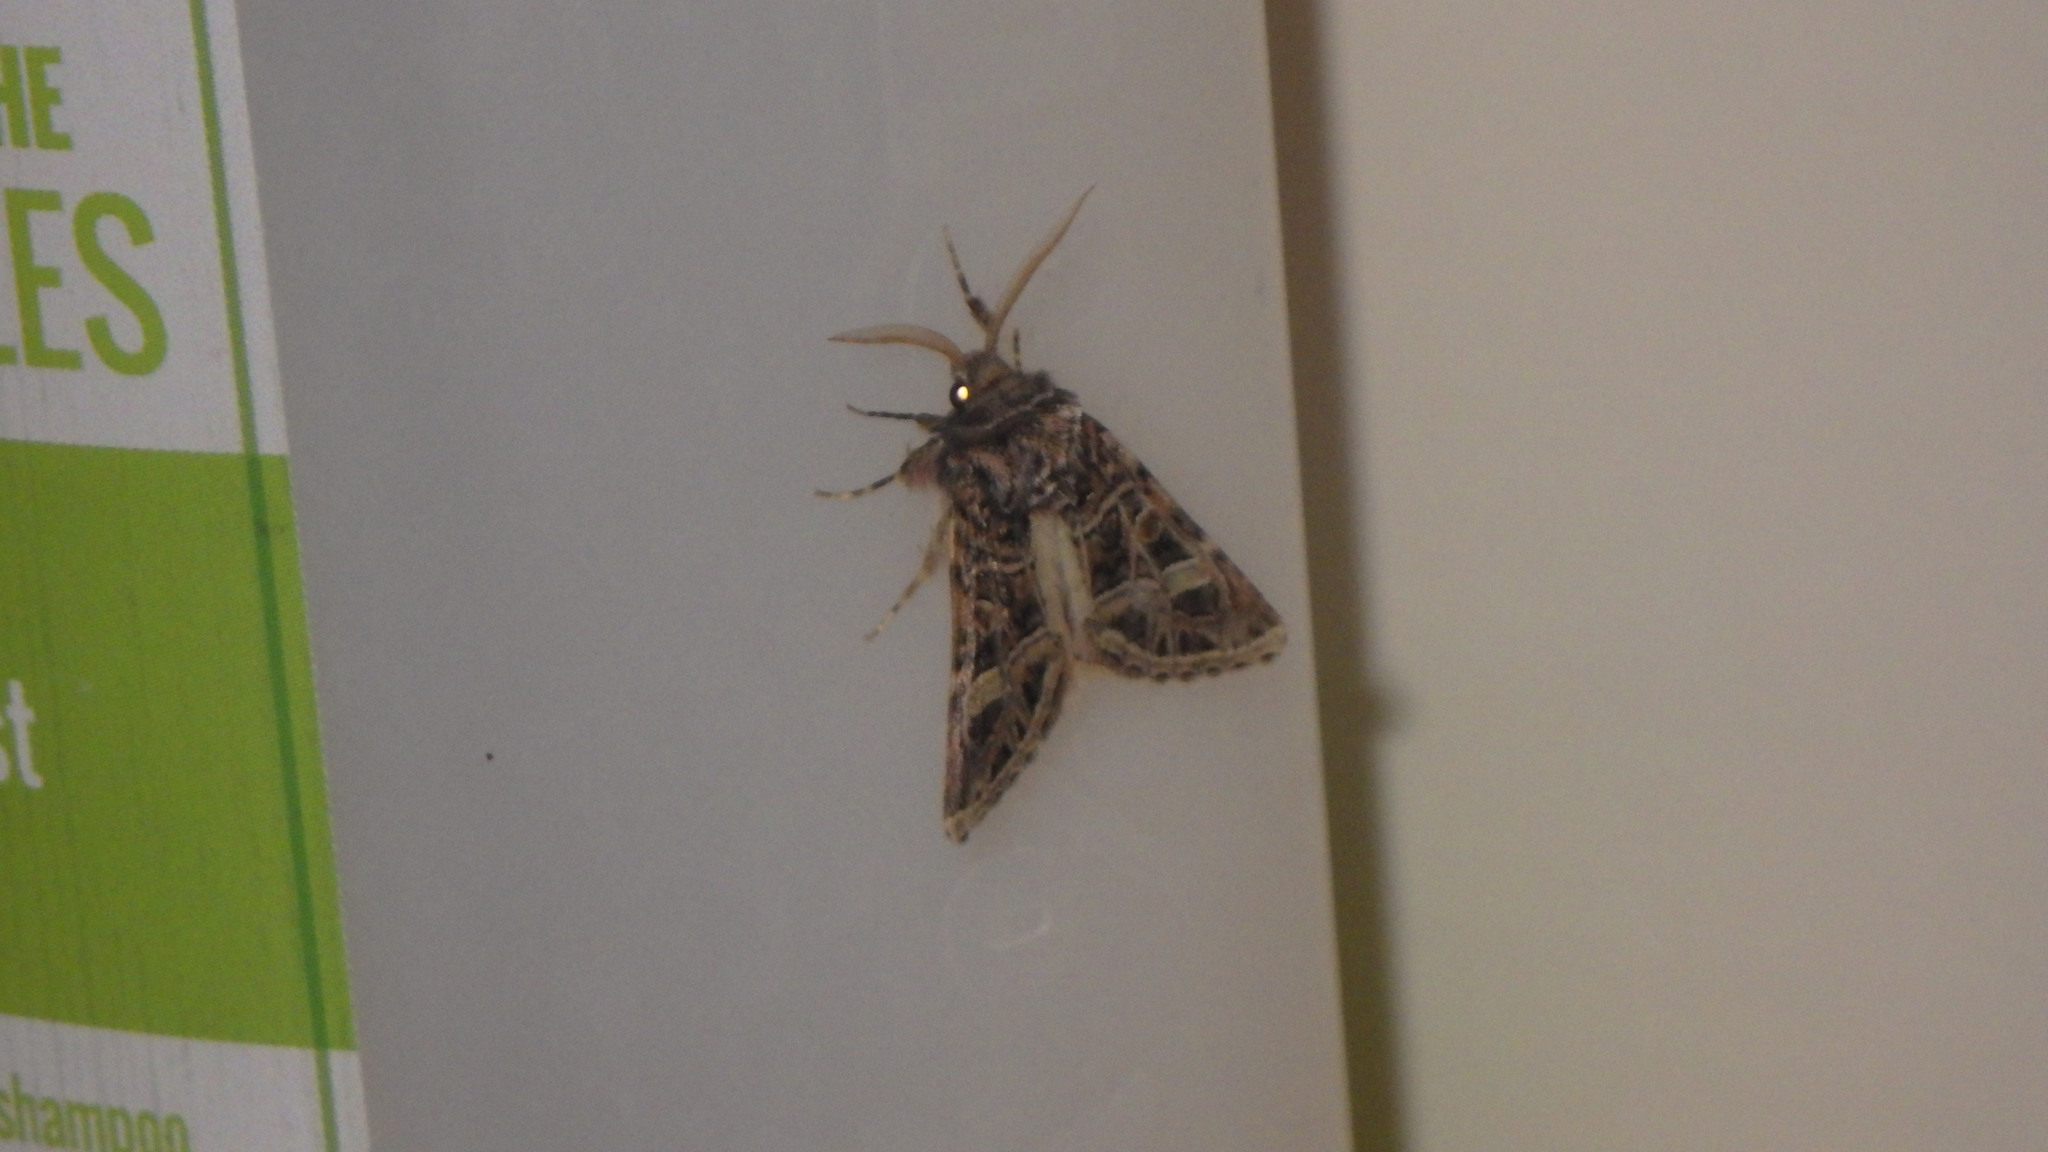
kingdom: Animalia
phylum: Arthropoda
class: Insecta
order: Lepidoptera
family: Noctuidae
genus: Leucochlaena
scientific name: Leucochlaena oditis
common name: Beautiful gothic
